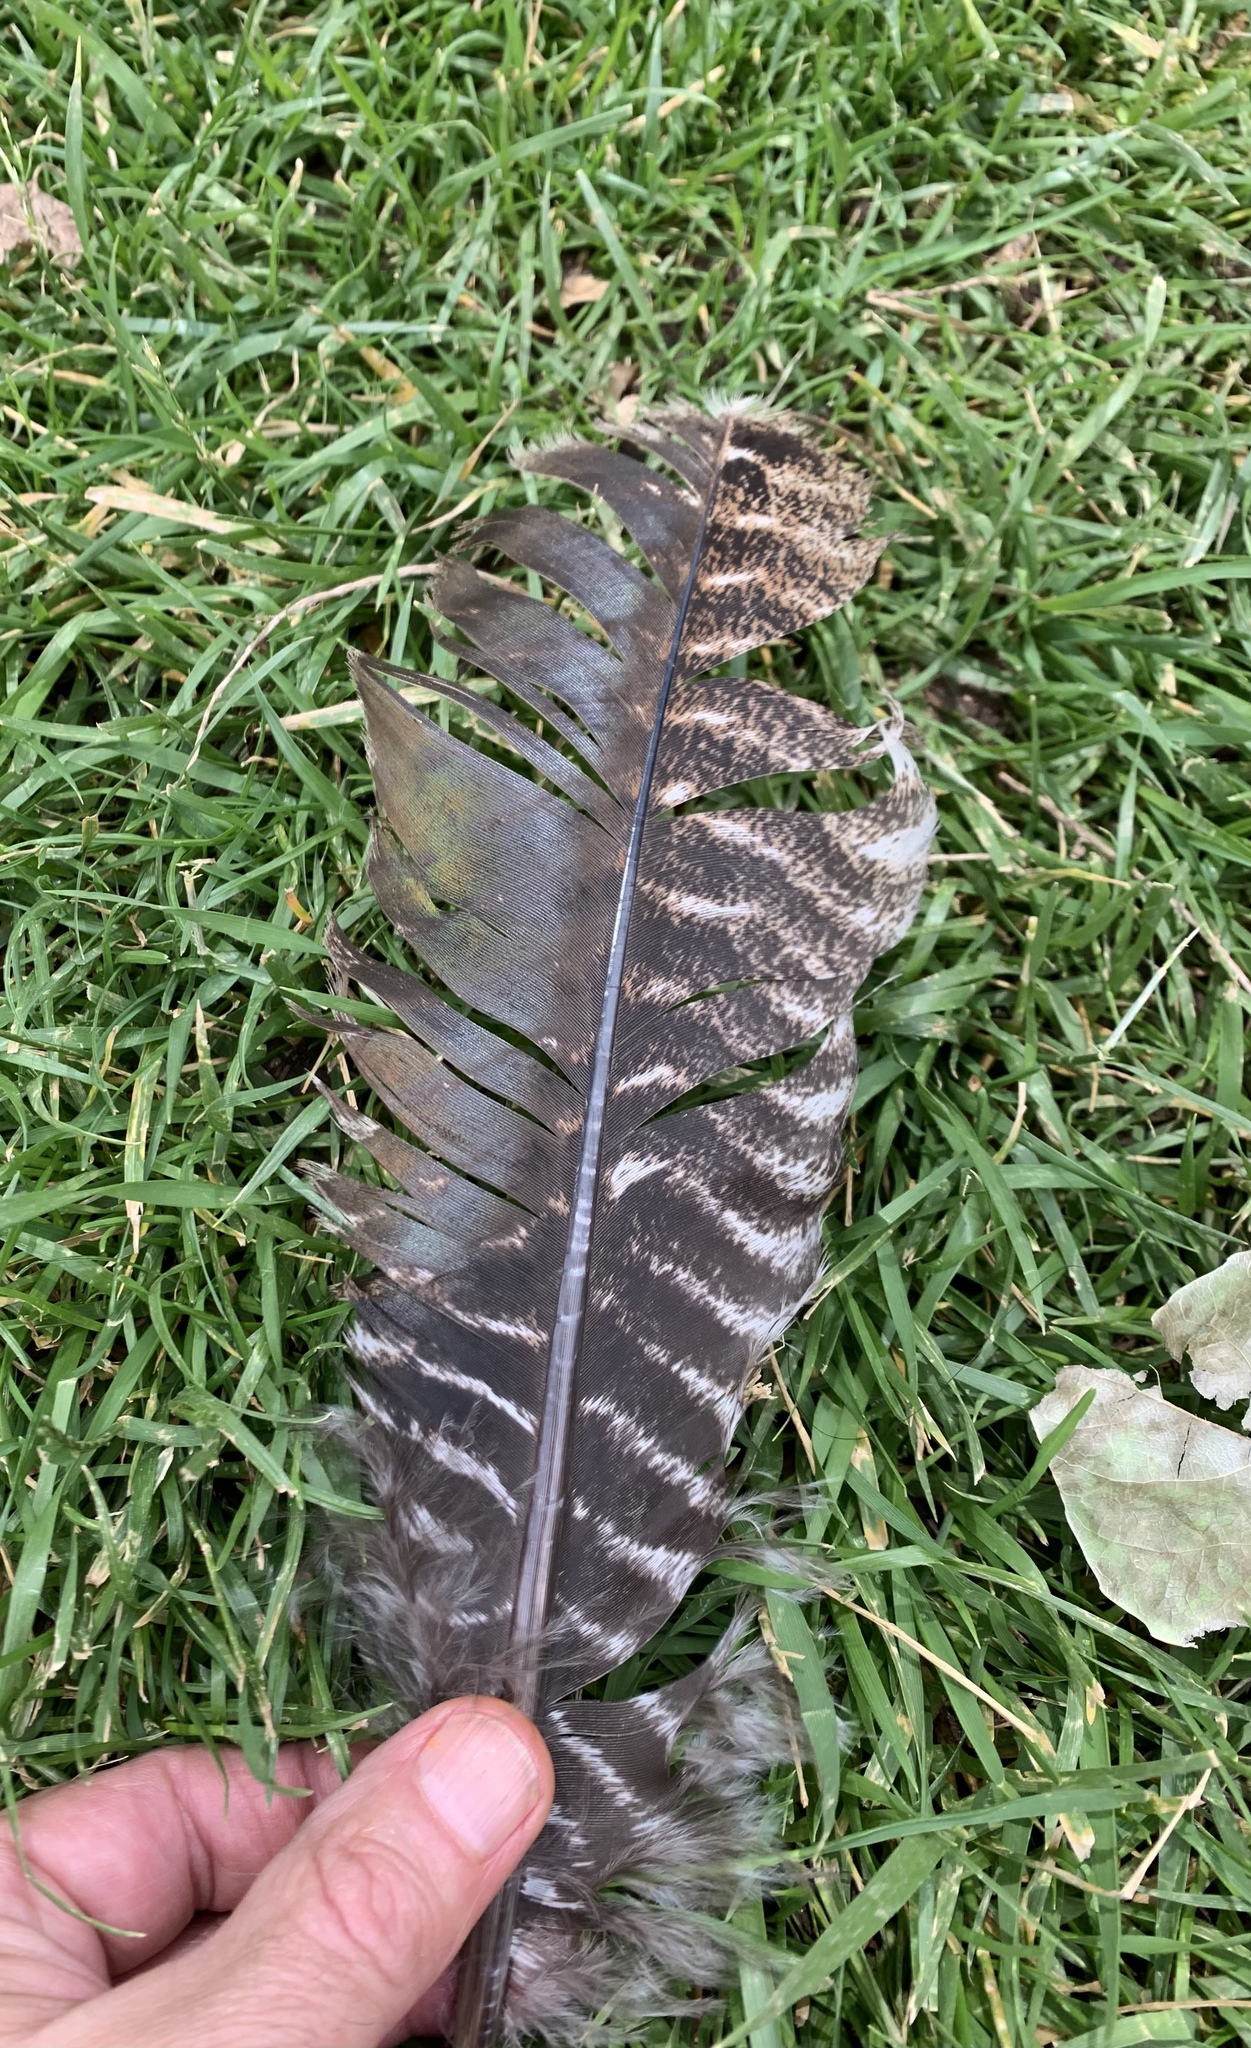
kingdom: Animalia
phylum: Chordata
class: Aves
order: Galliformes
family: Phasianidae
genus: Meleagris
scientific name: Meleagris gallopavo
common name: Wild turkey
